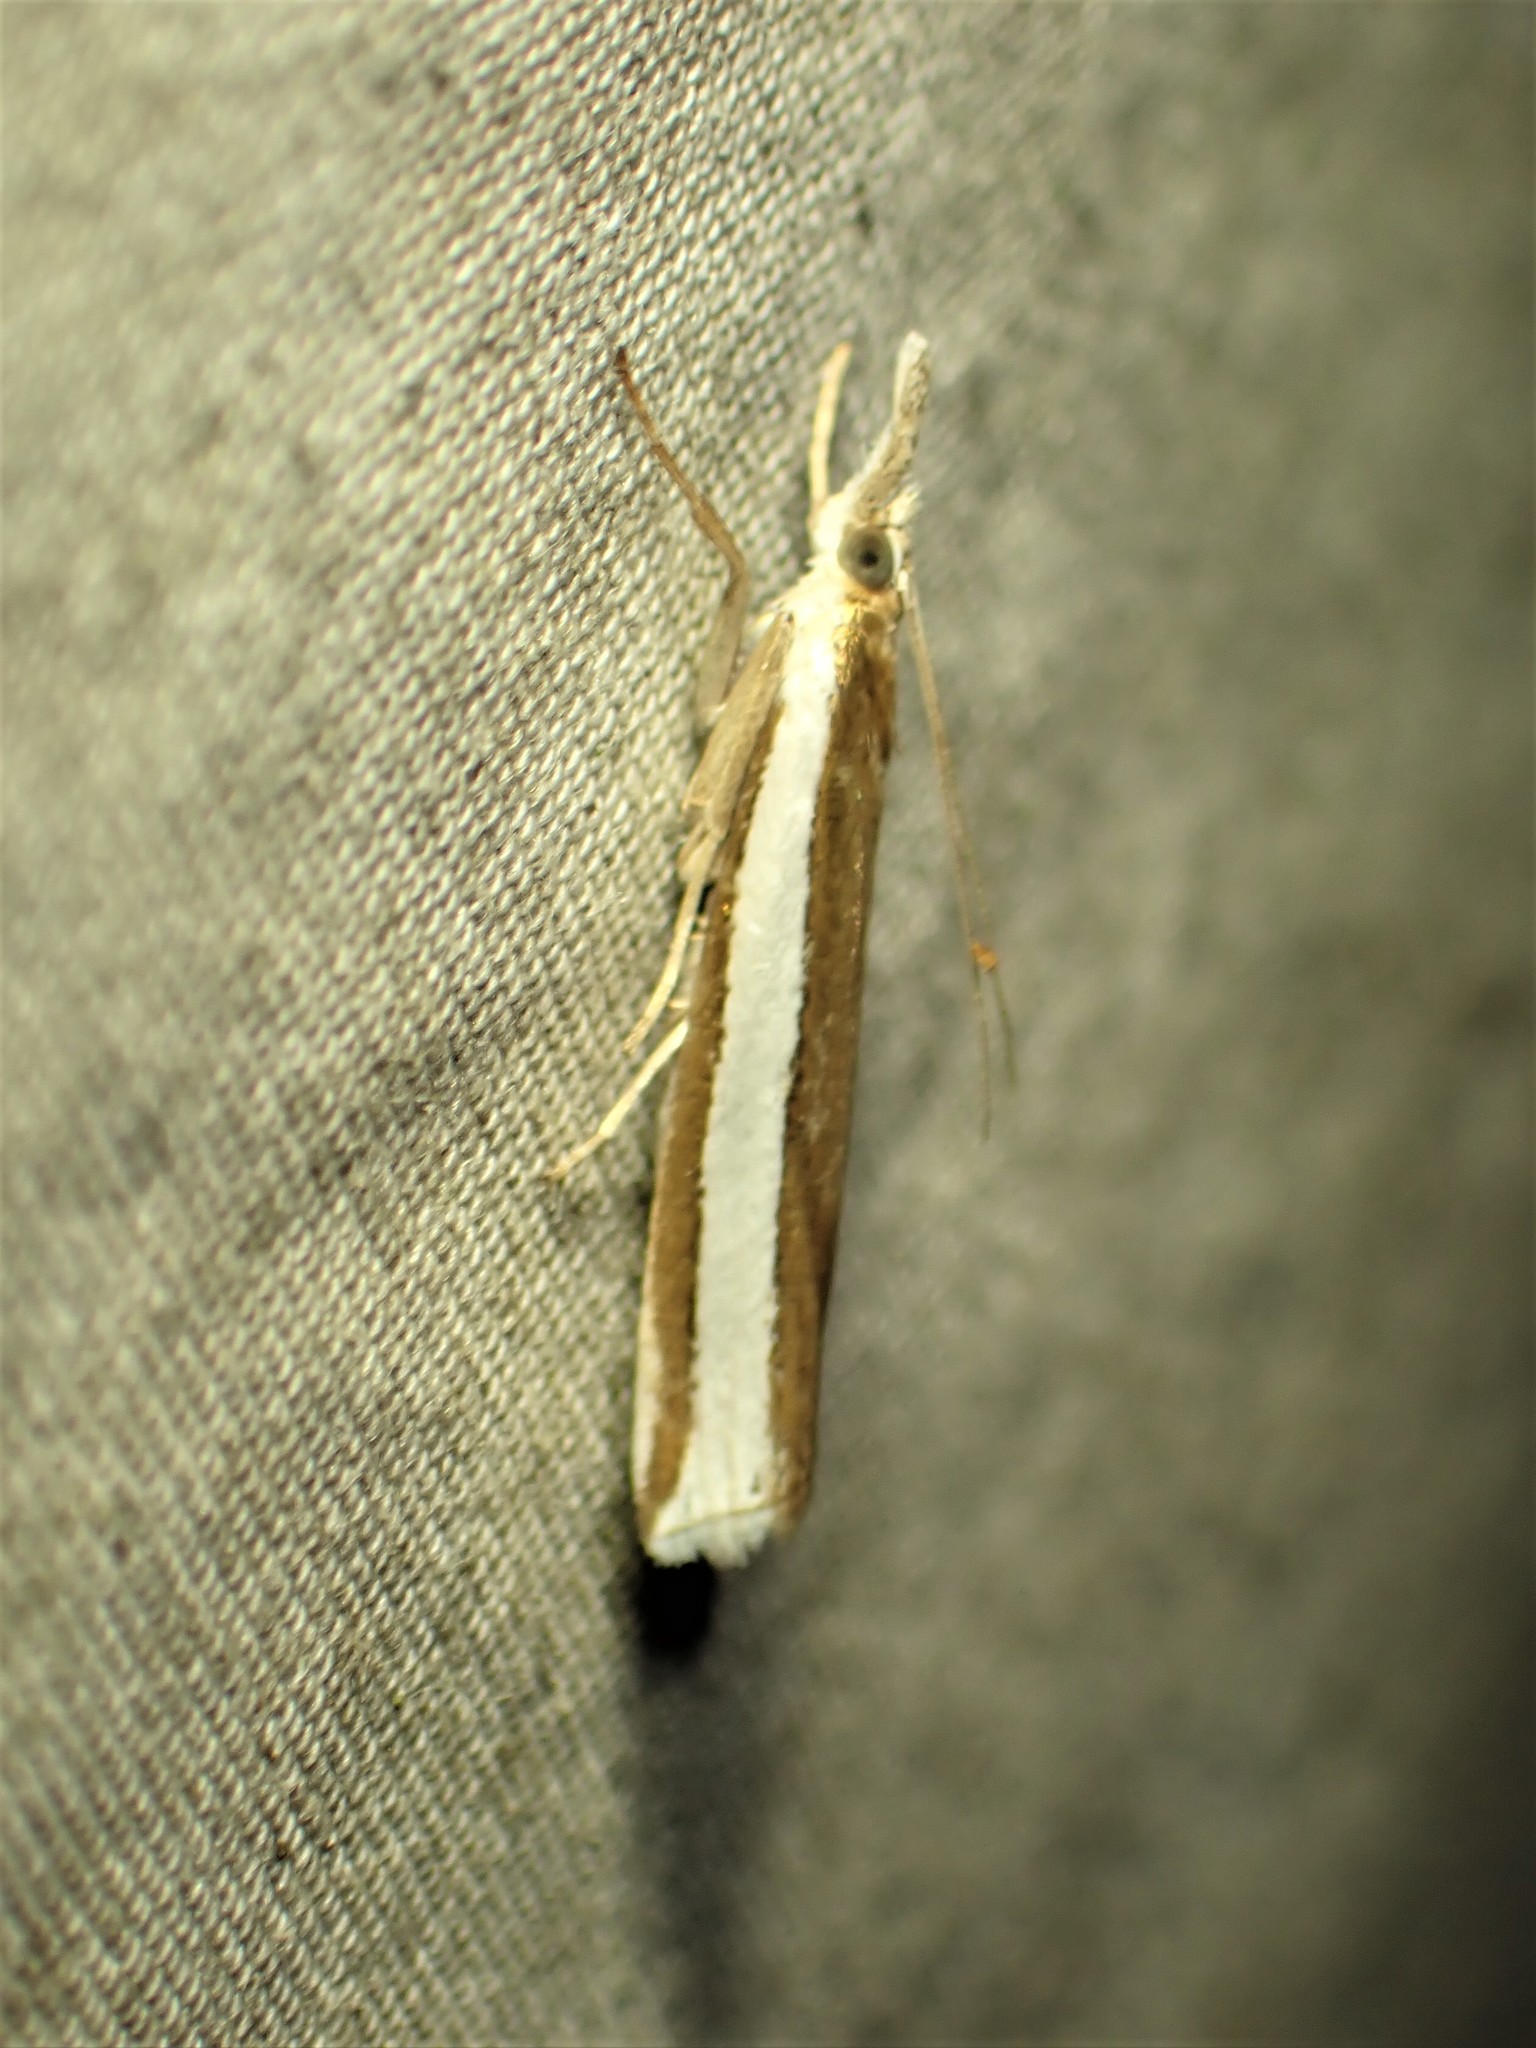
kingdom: Animalia
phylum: Arthropoda
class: Insecta
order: Lepidoptera
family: Crambidae
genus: Crambus
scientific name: Crambus unistriatellus
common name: Wide-stripe grass-veneer moth
